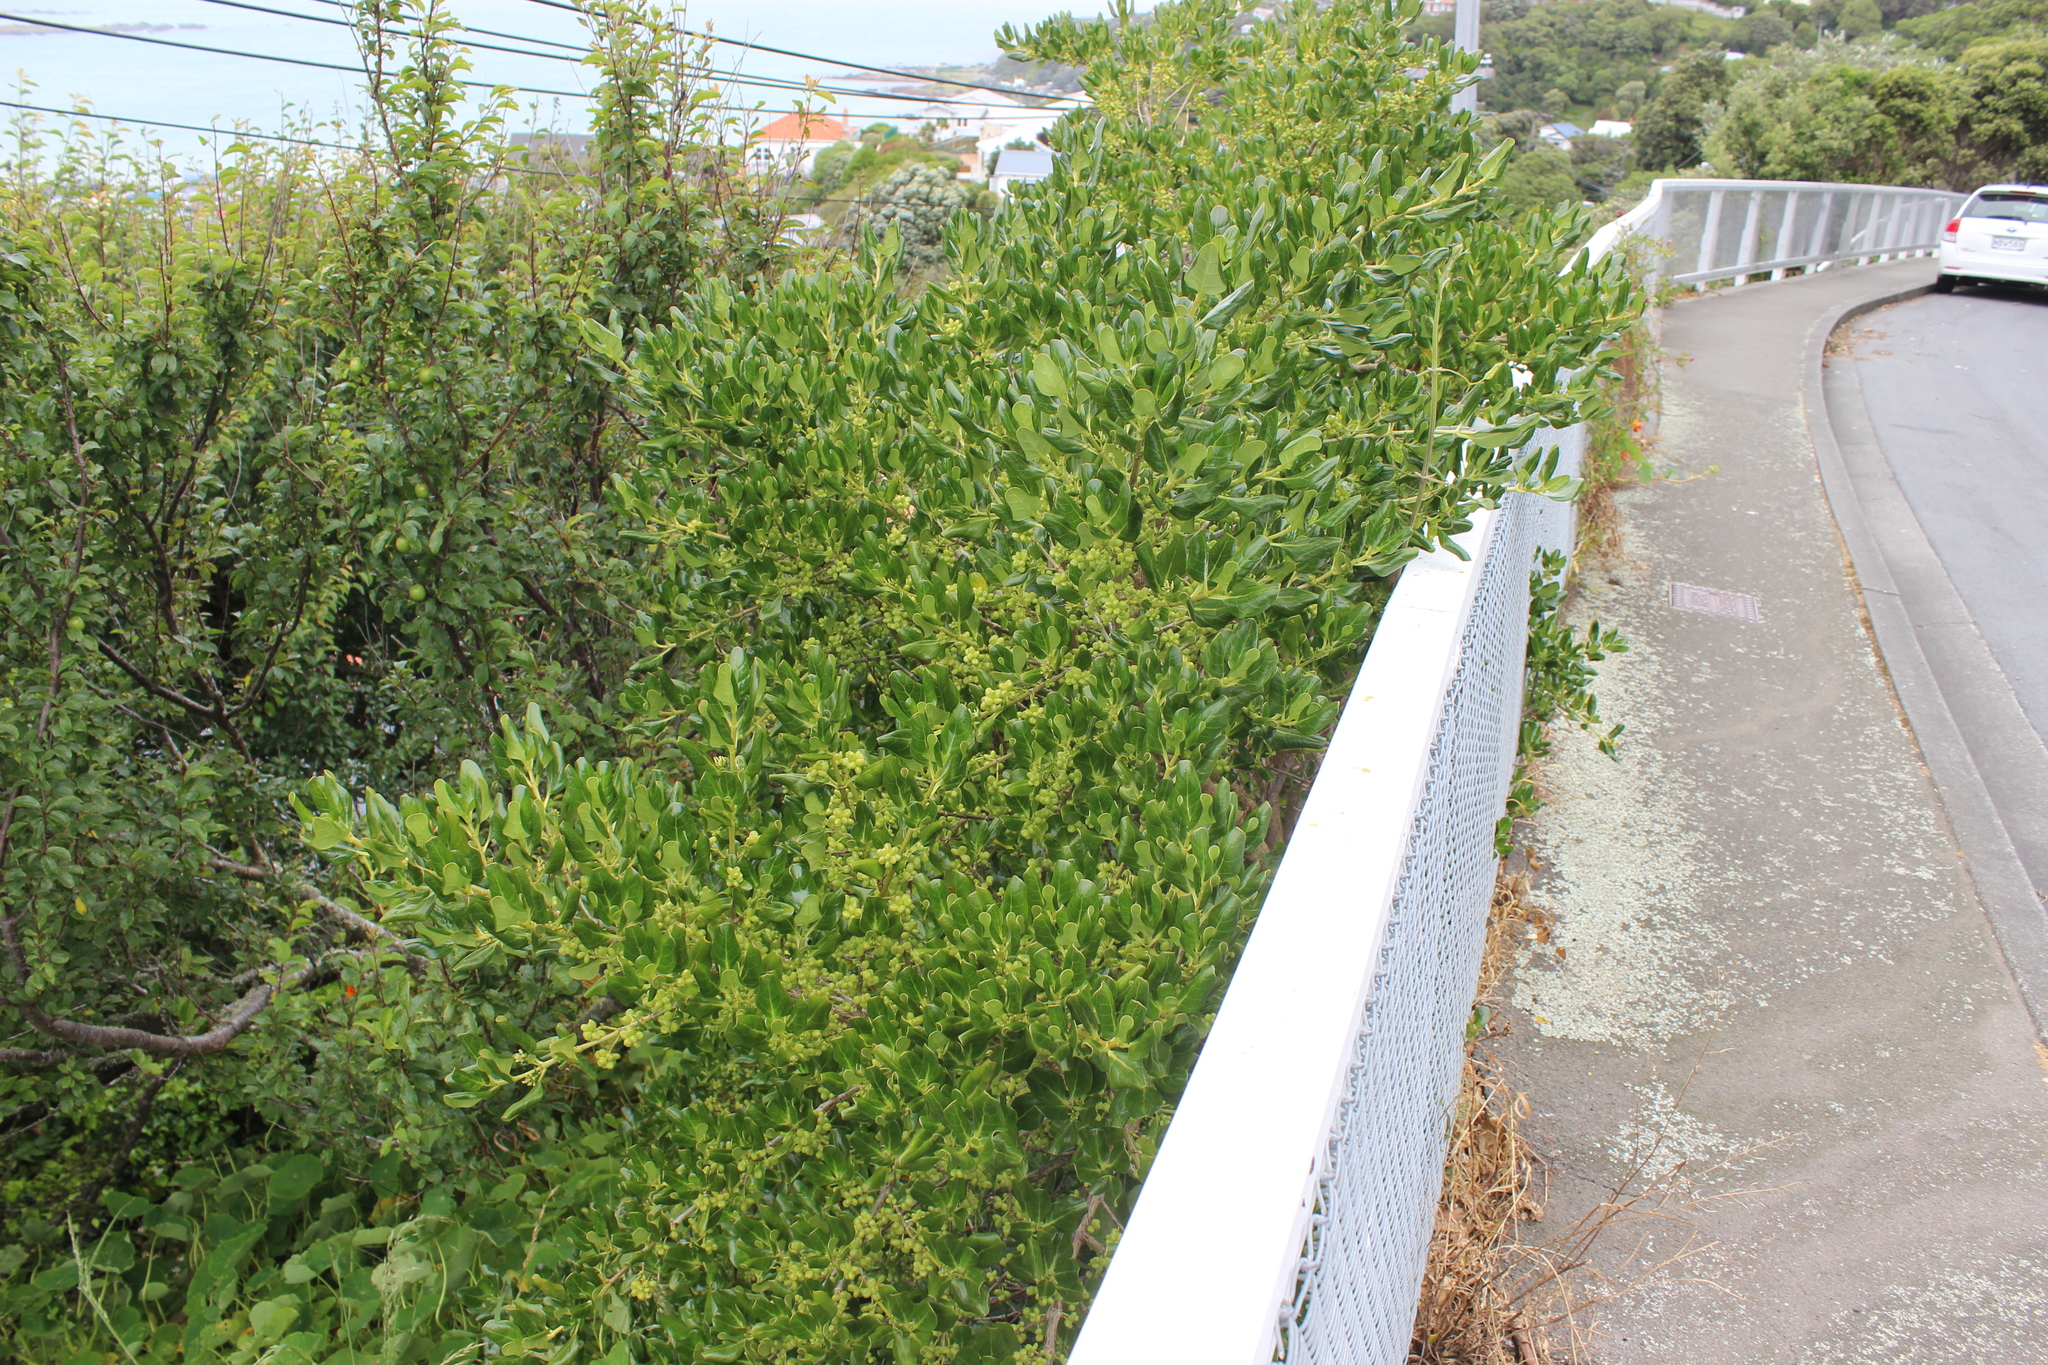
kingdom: Plantae
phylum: Tracheophyta
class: Magnoliopsida
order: Gentianales
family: Rubiaceae
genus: Coprosma
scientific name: Coprosma repens
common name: Tree bedstraw
